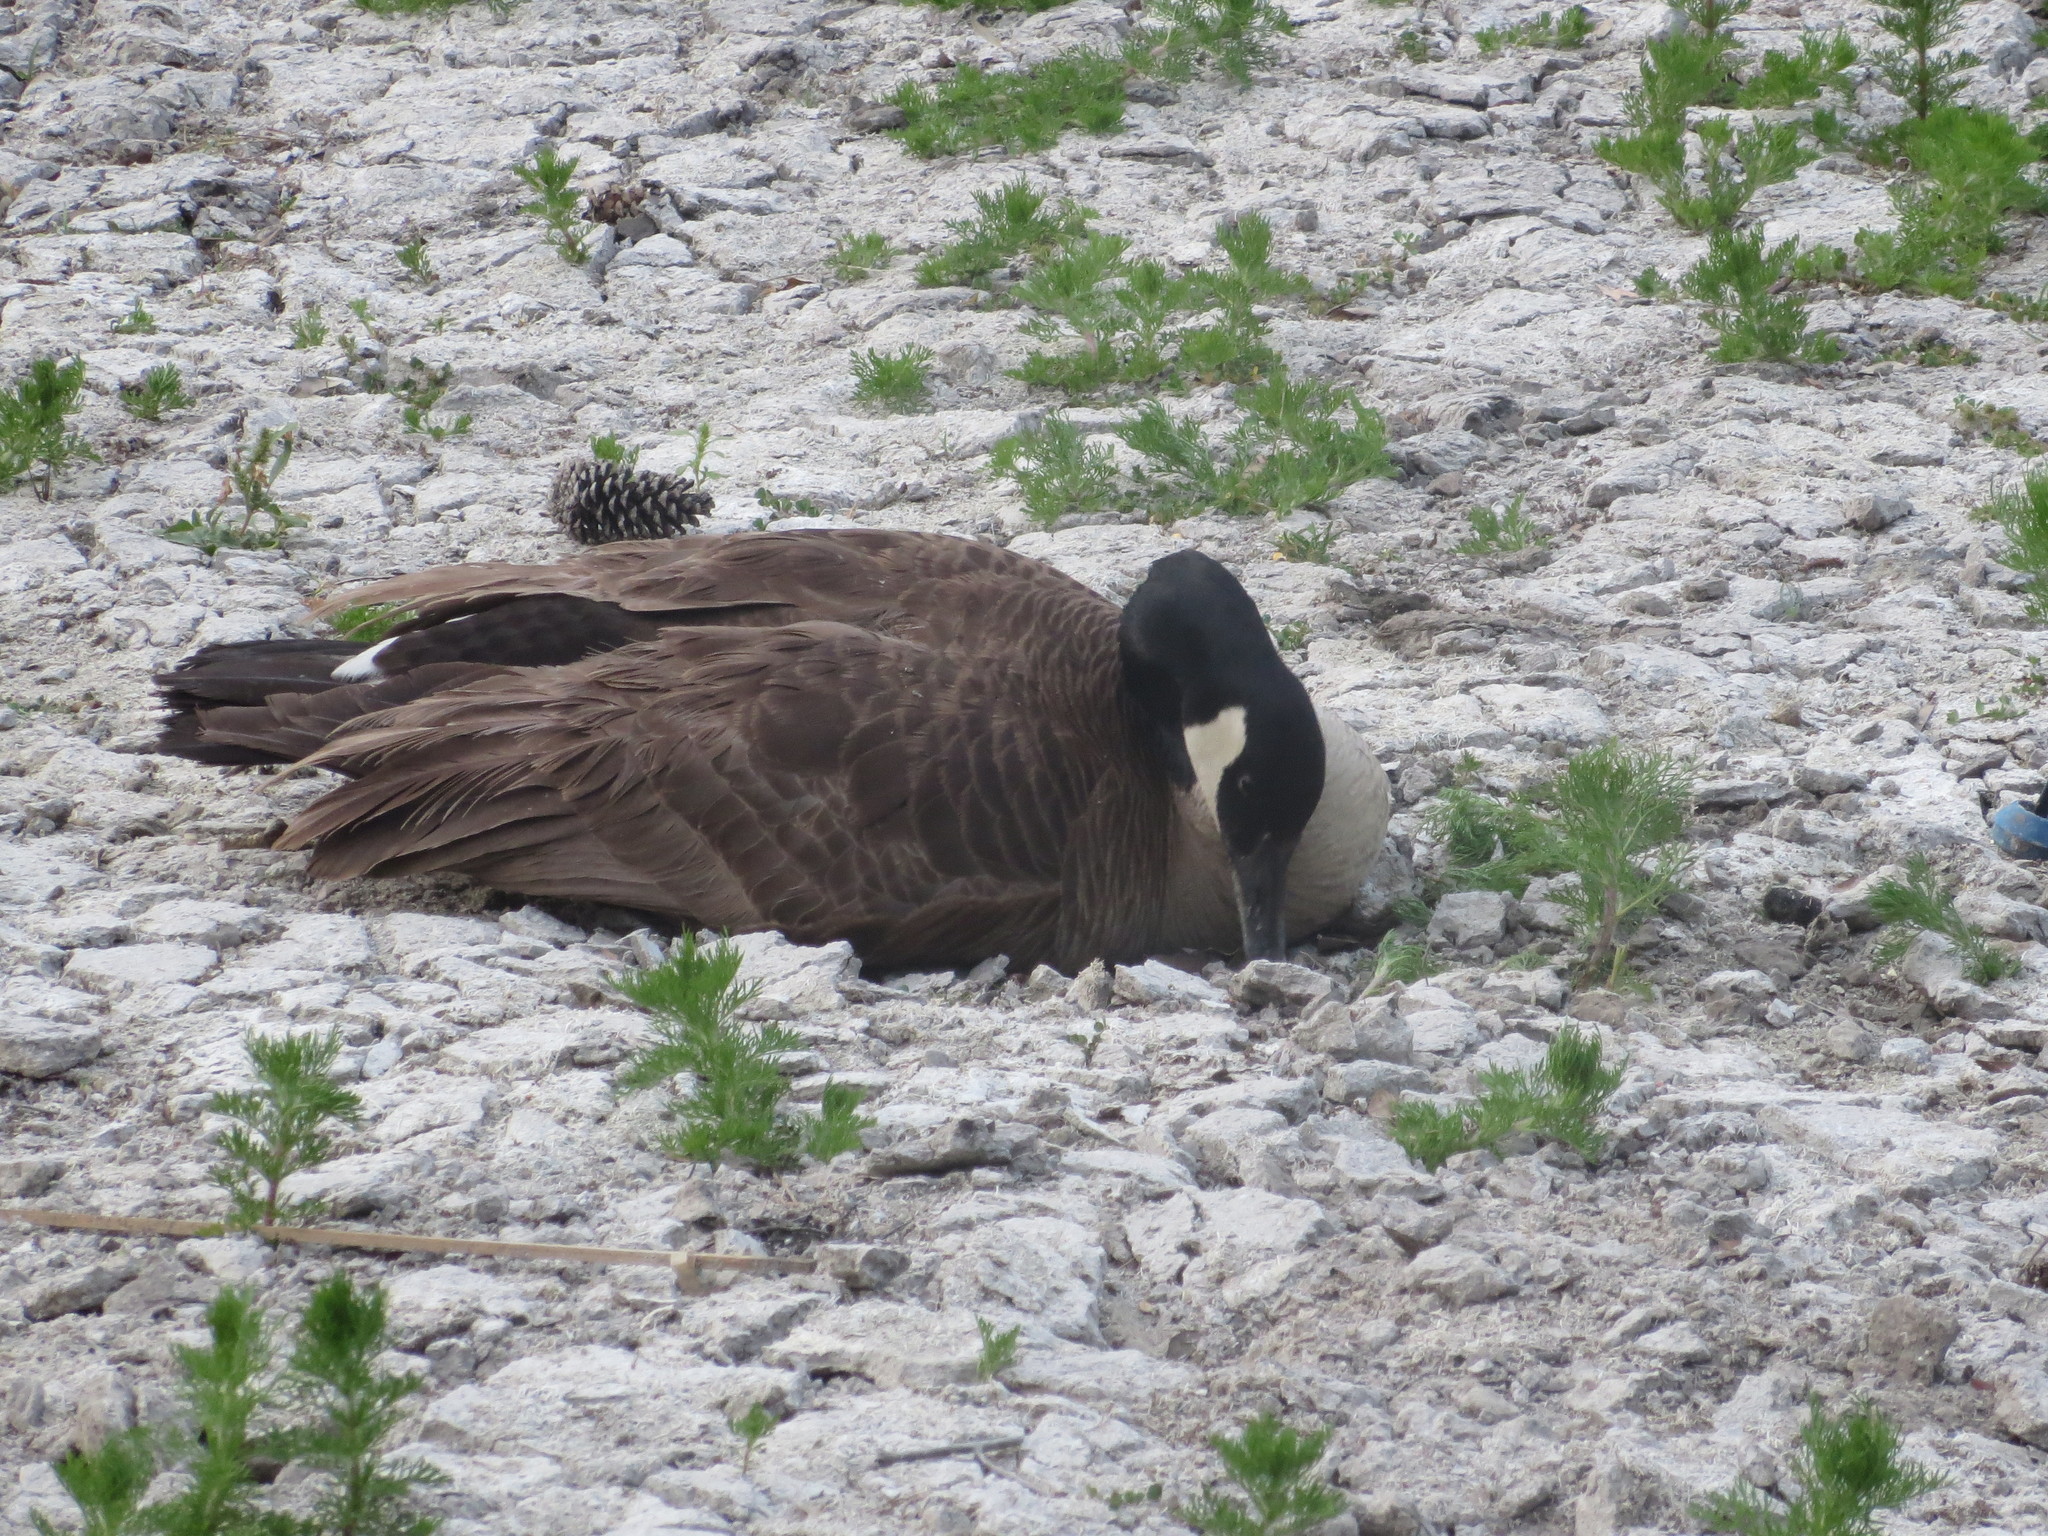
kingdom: Animalia
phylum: Chordata
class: Aves
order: Anseriformes
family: Anatidae
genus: Branta
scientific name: Branta canadensis
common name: Canada goose
